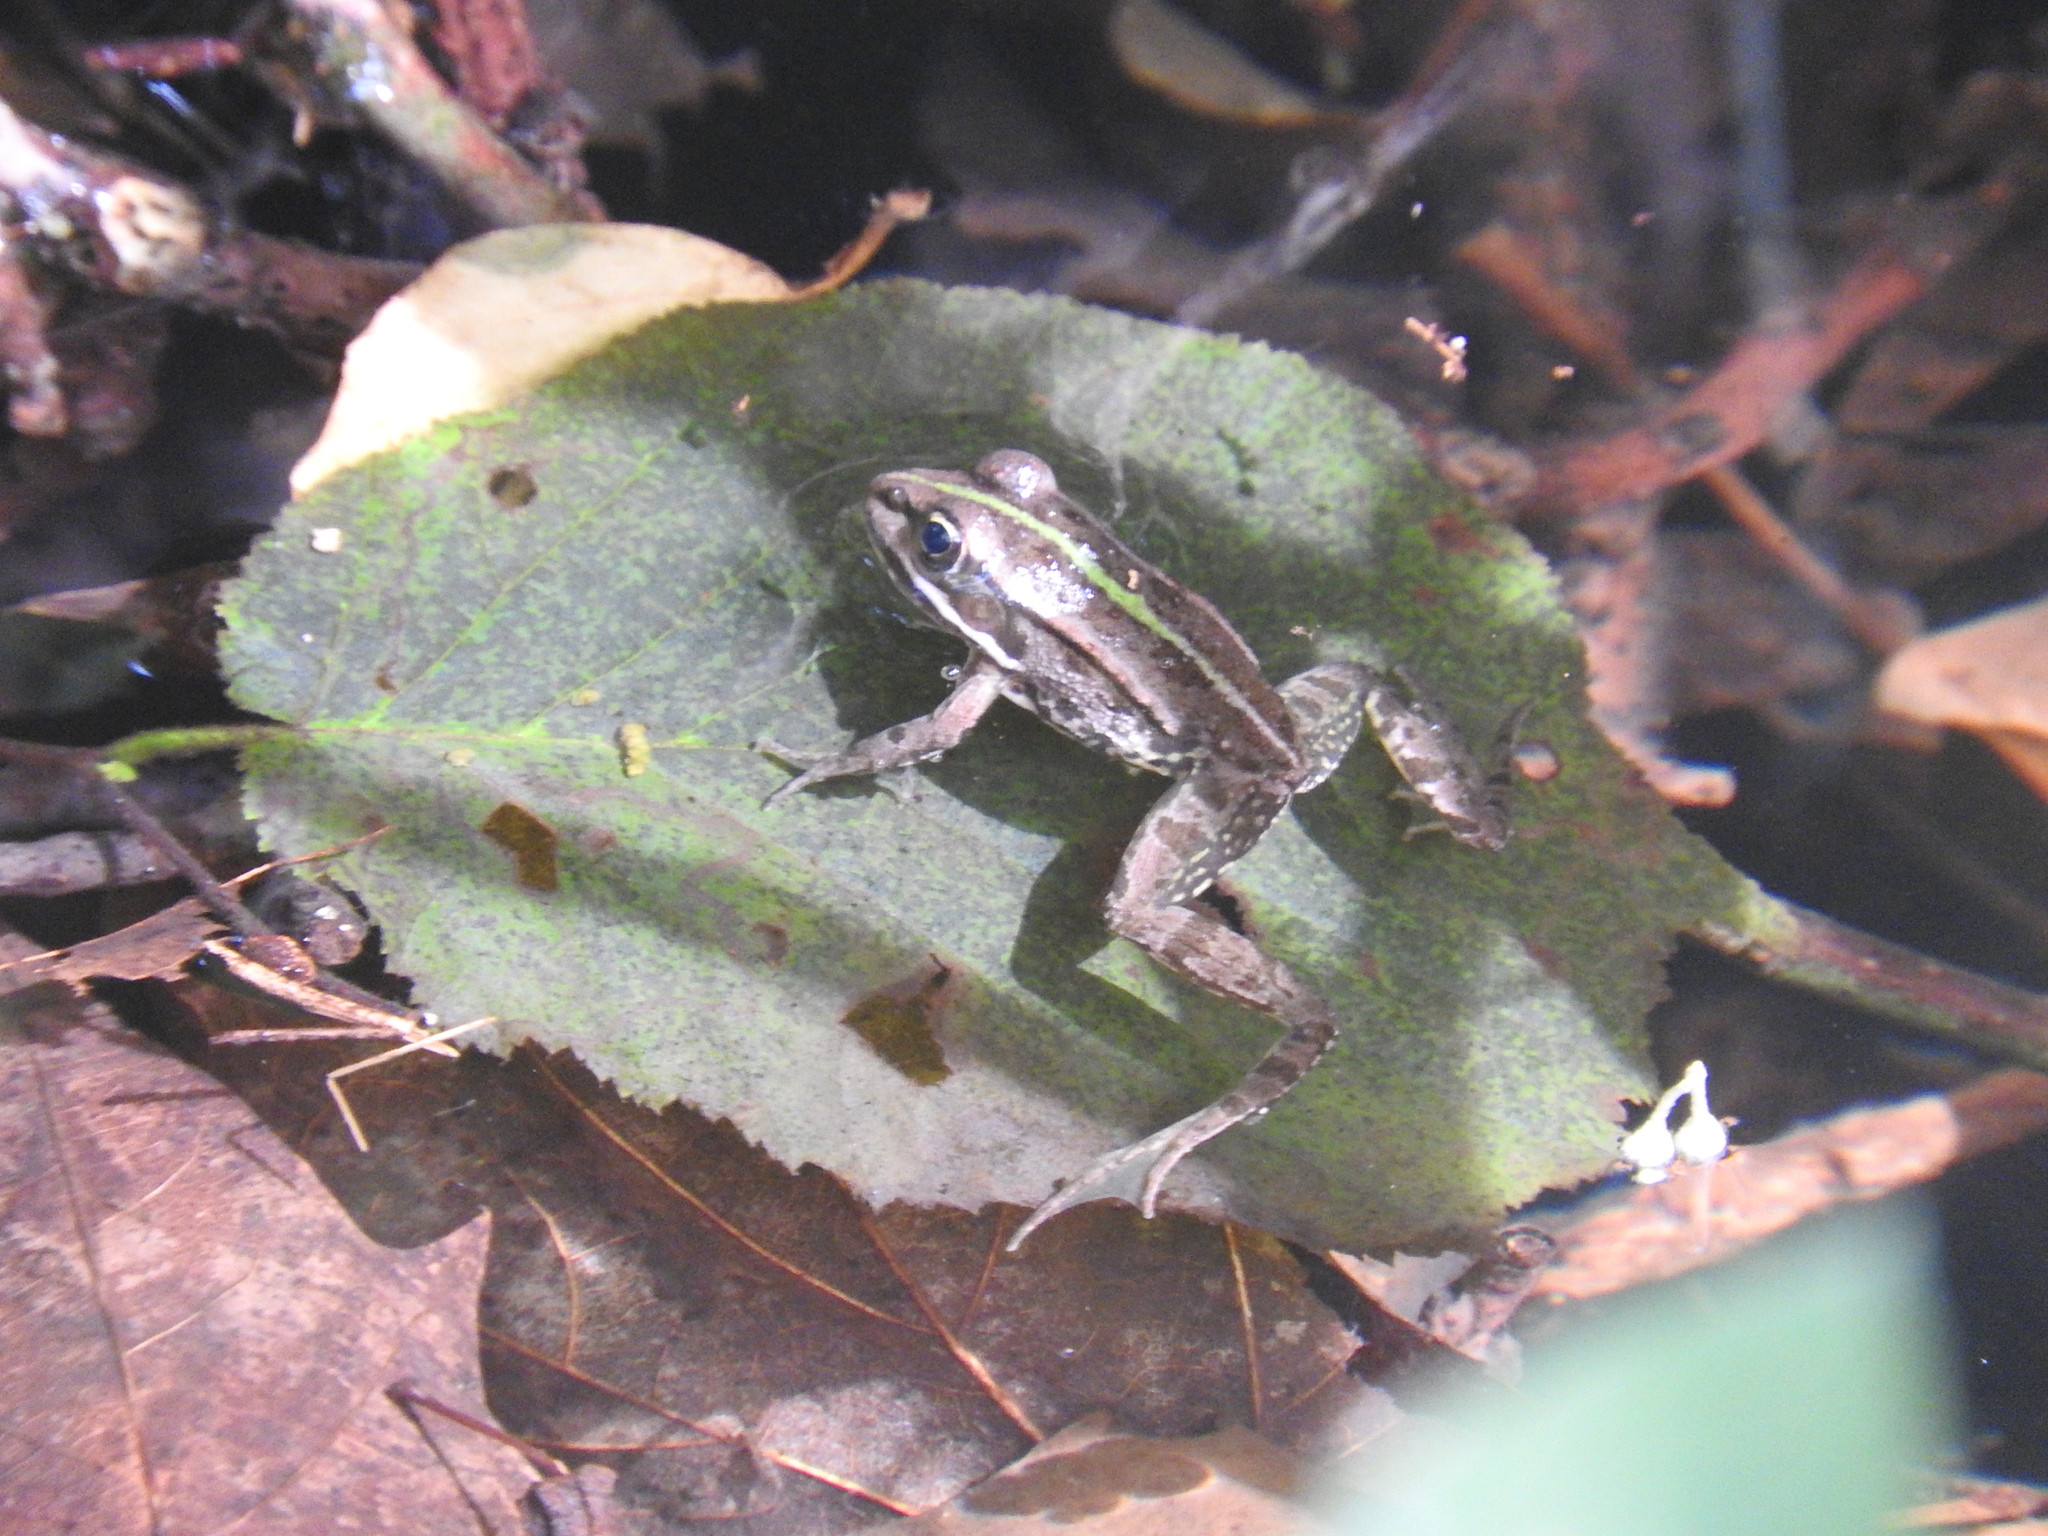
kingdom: Animalia
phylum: Chordata
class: Amphibia
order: Anura
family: Ranidae
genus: Pelophylax
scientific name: Pelophylax
